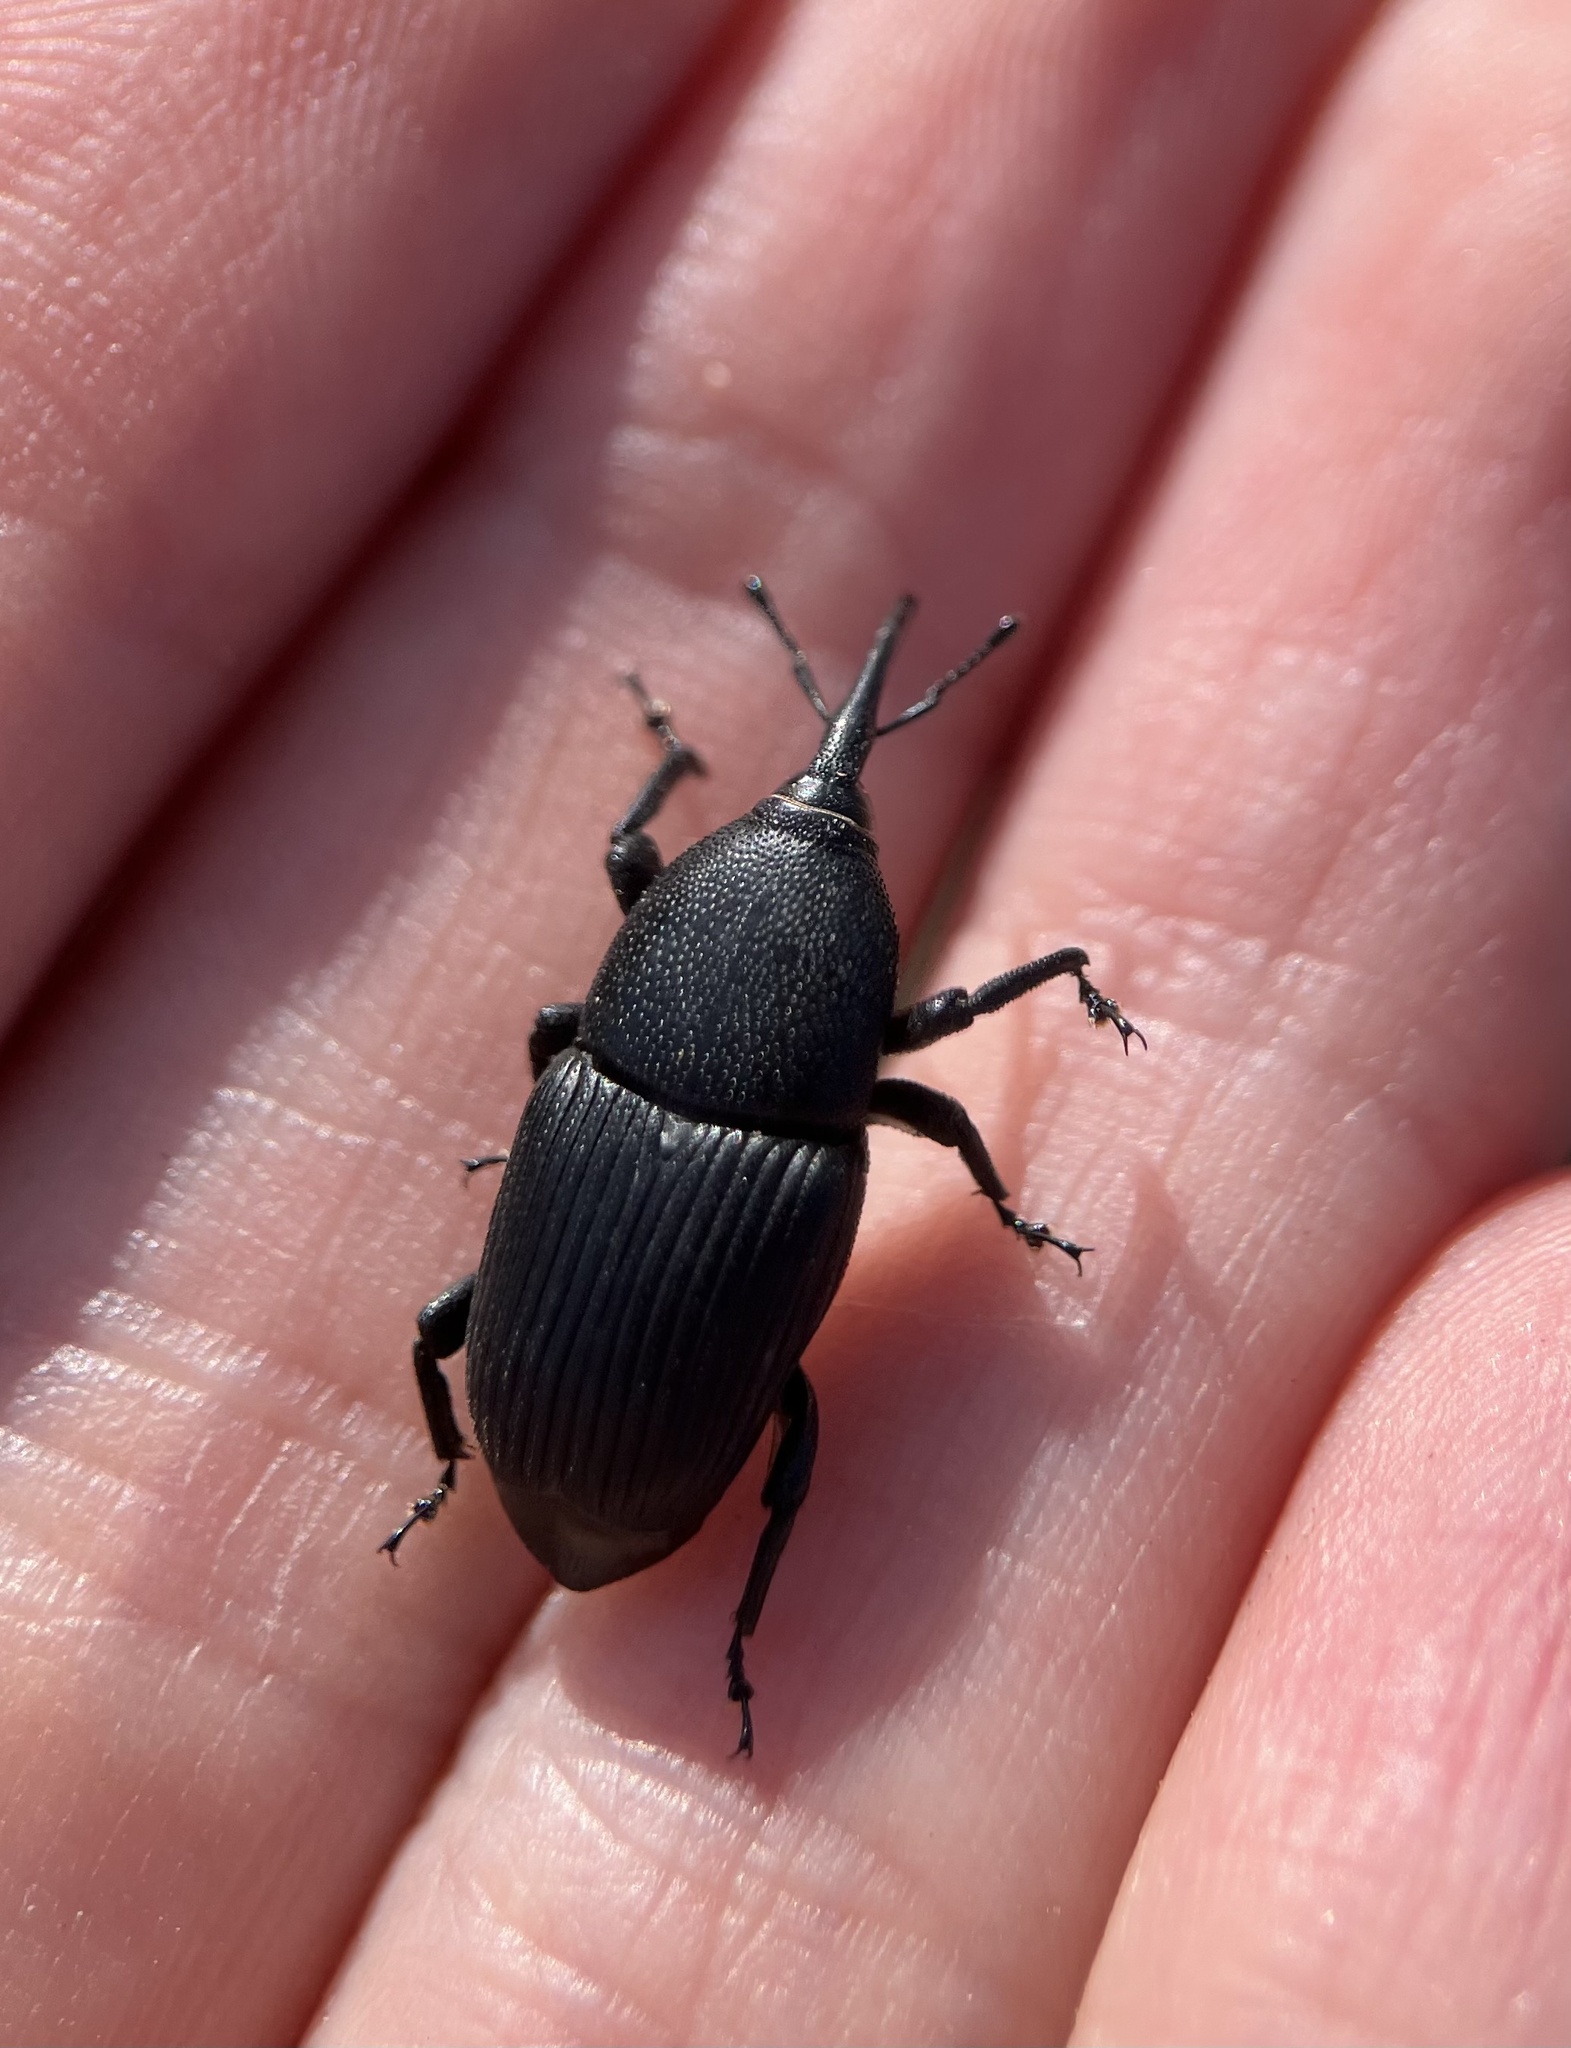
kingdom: Animalia
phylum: Arthropoda
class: Insecta
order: Coleoptera
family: Dryophthoridae
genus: Scyphophorus
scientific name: Scyphophorus yuccae
